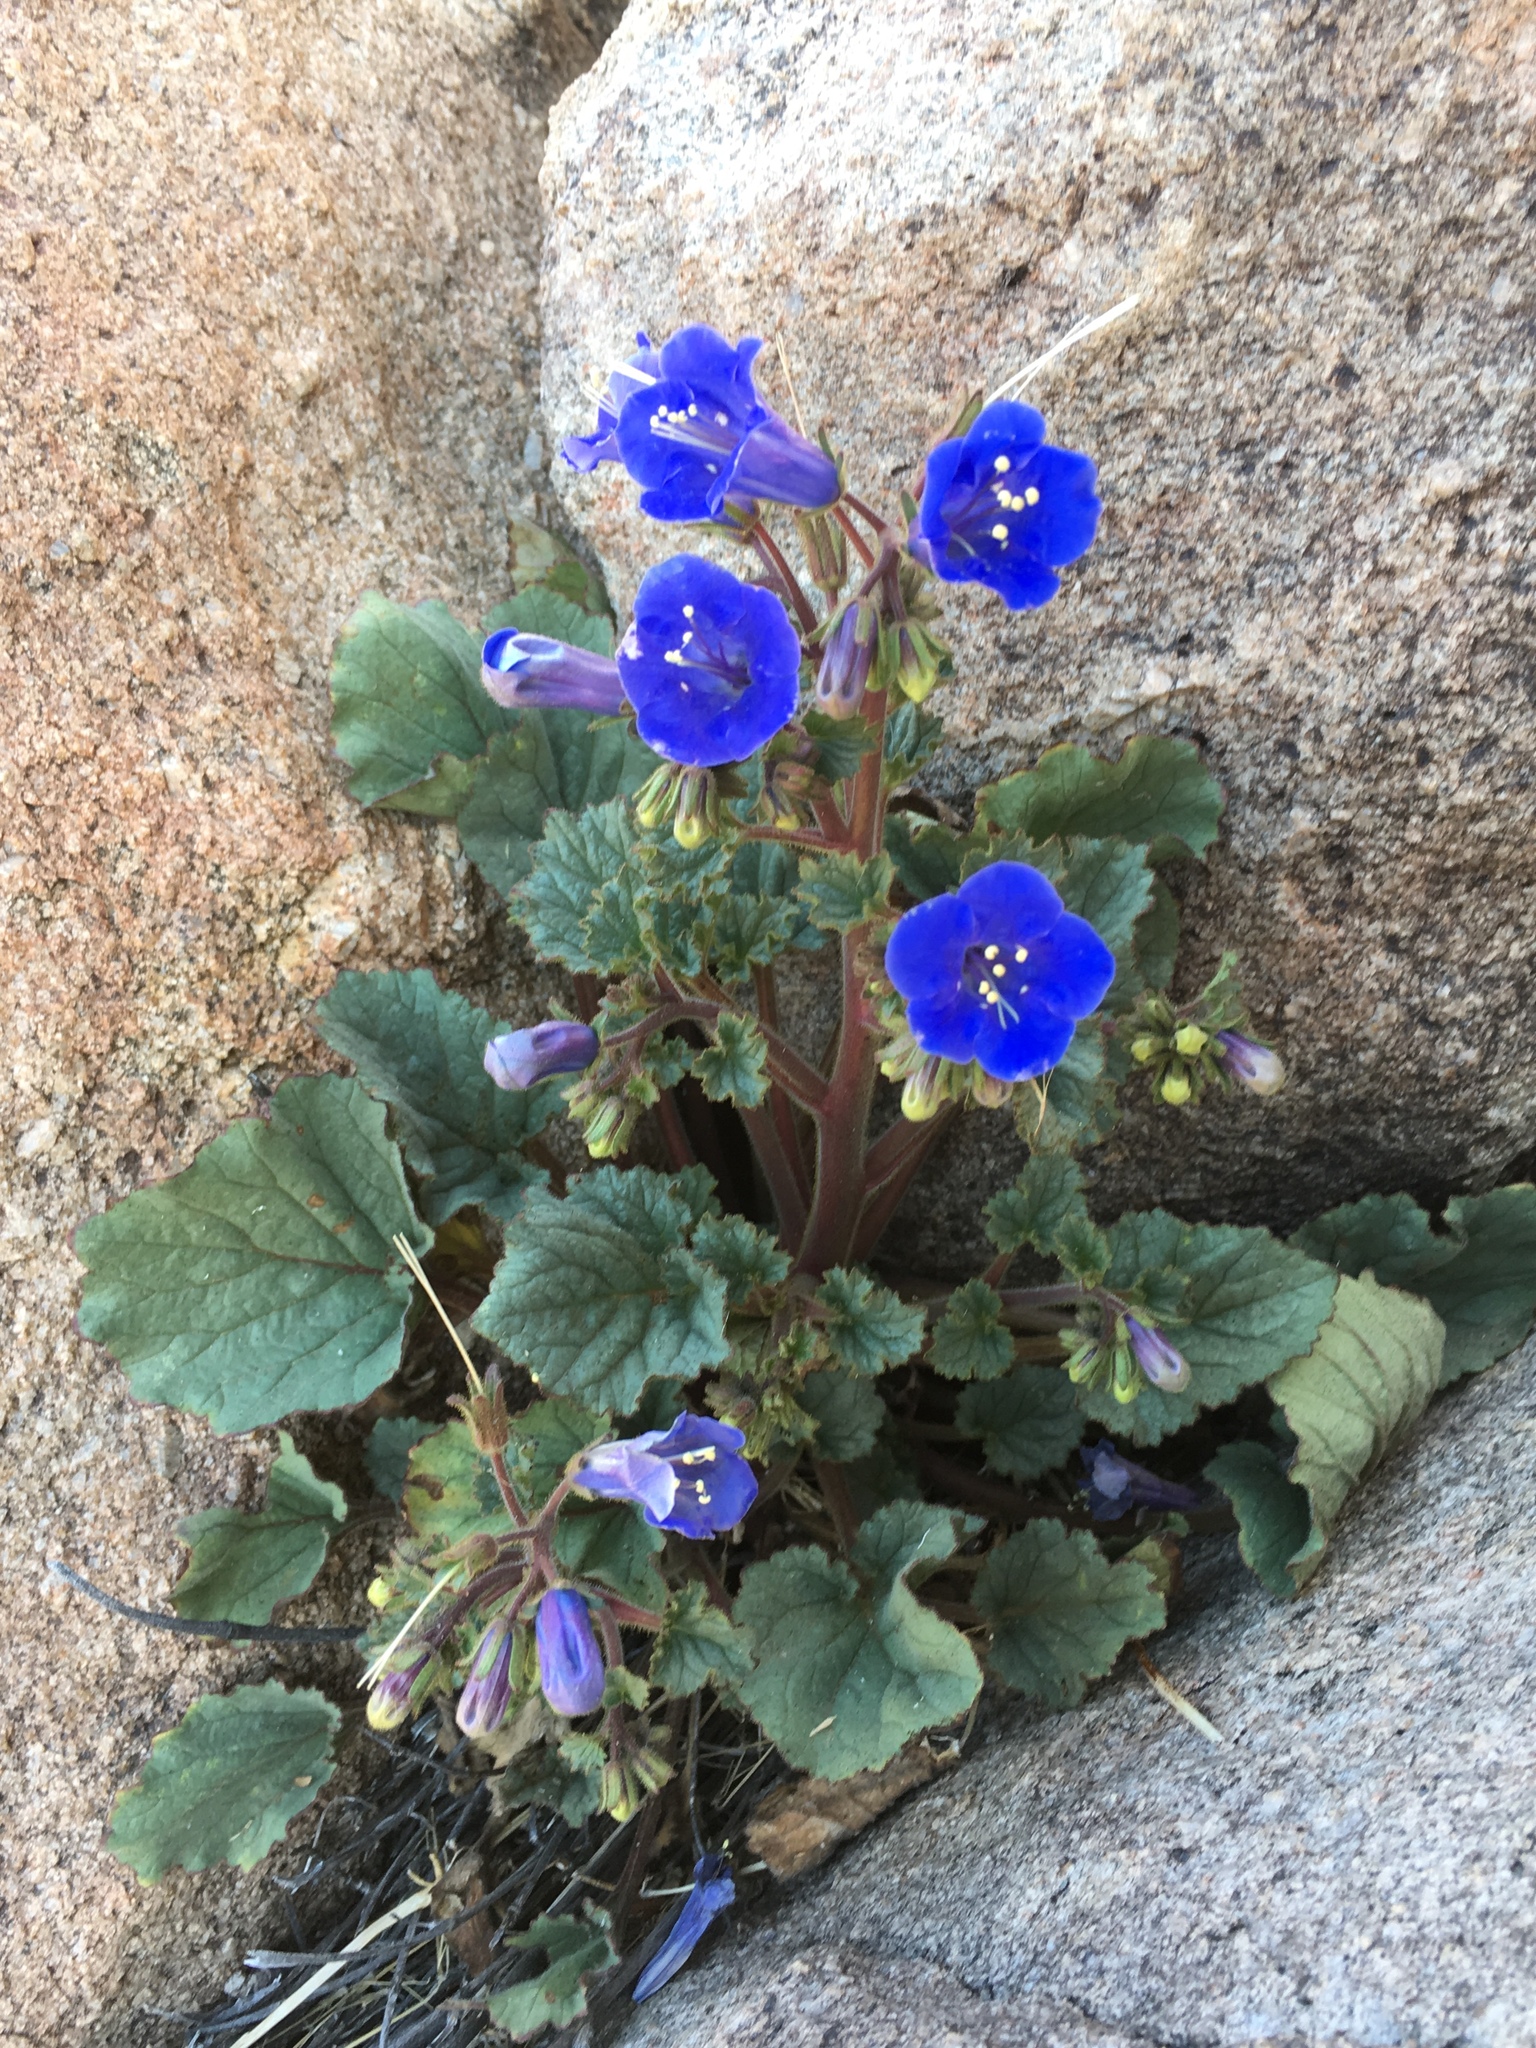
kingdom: Plantae
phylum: Tracheophyta
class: Magnoliopsida
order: Boraginales
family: Hydrophyllaceae
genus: Phacelia
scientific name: Phacelia campanularia
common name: California bluebell
